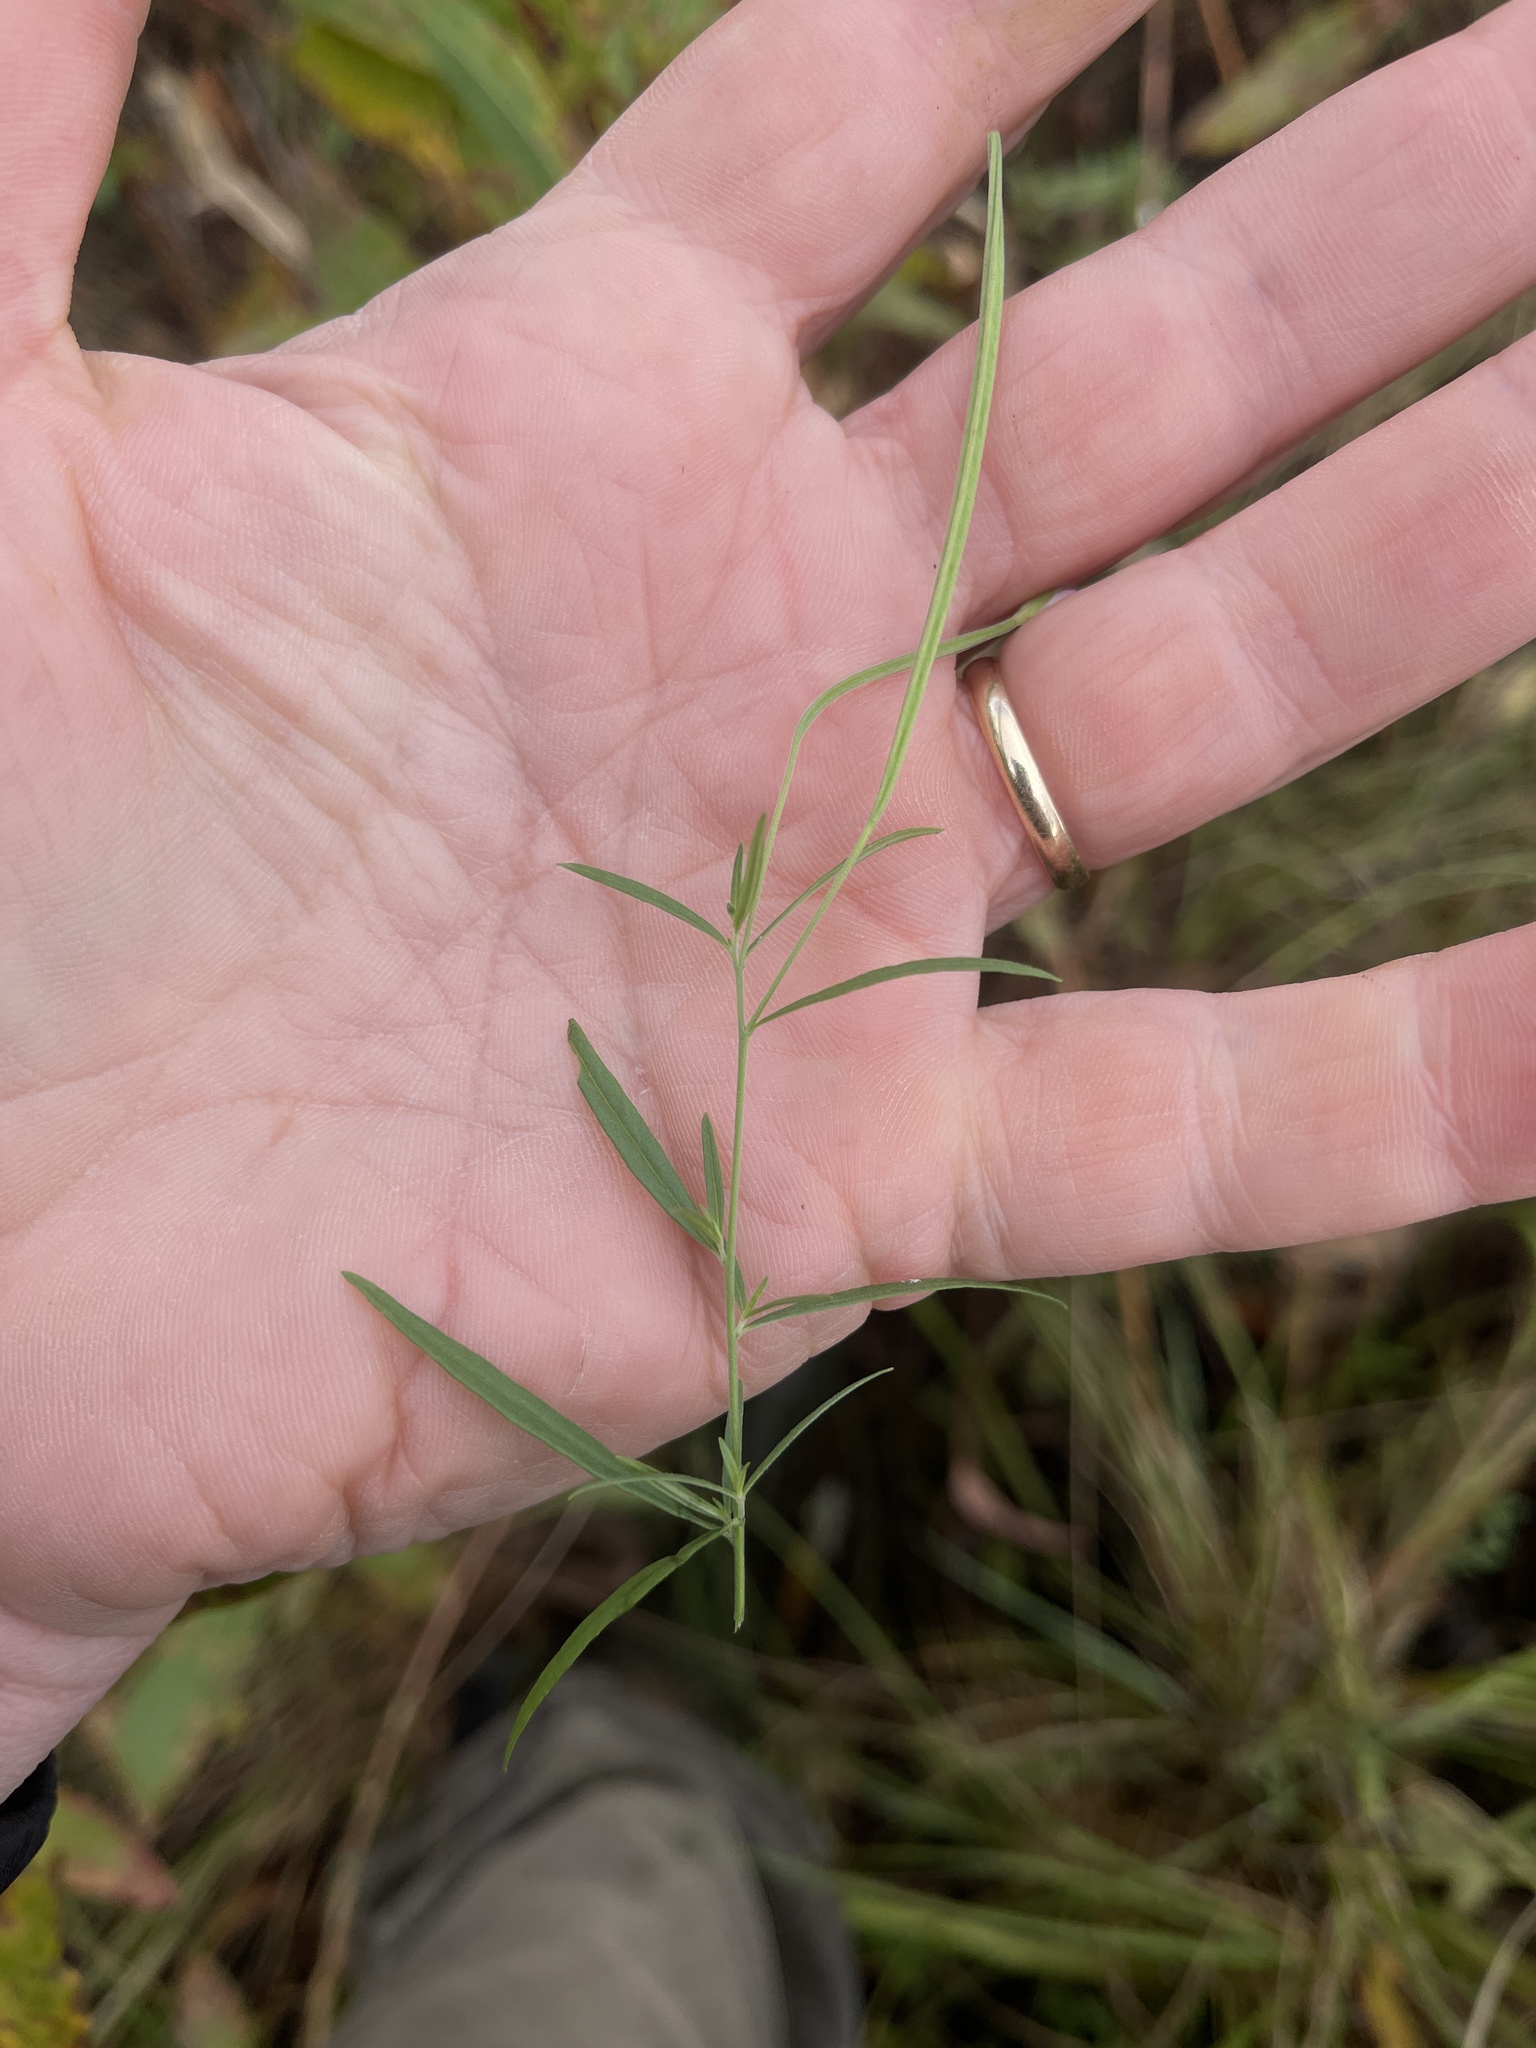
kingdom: Plantae
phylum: Tracheophyta
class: Magnoliopsida
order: Myrtales
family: Onagraceae
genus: Epilobium
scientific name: Epilobium leptophyllum
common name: Bog willowherb
